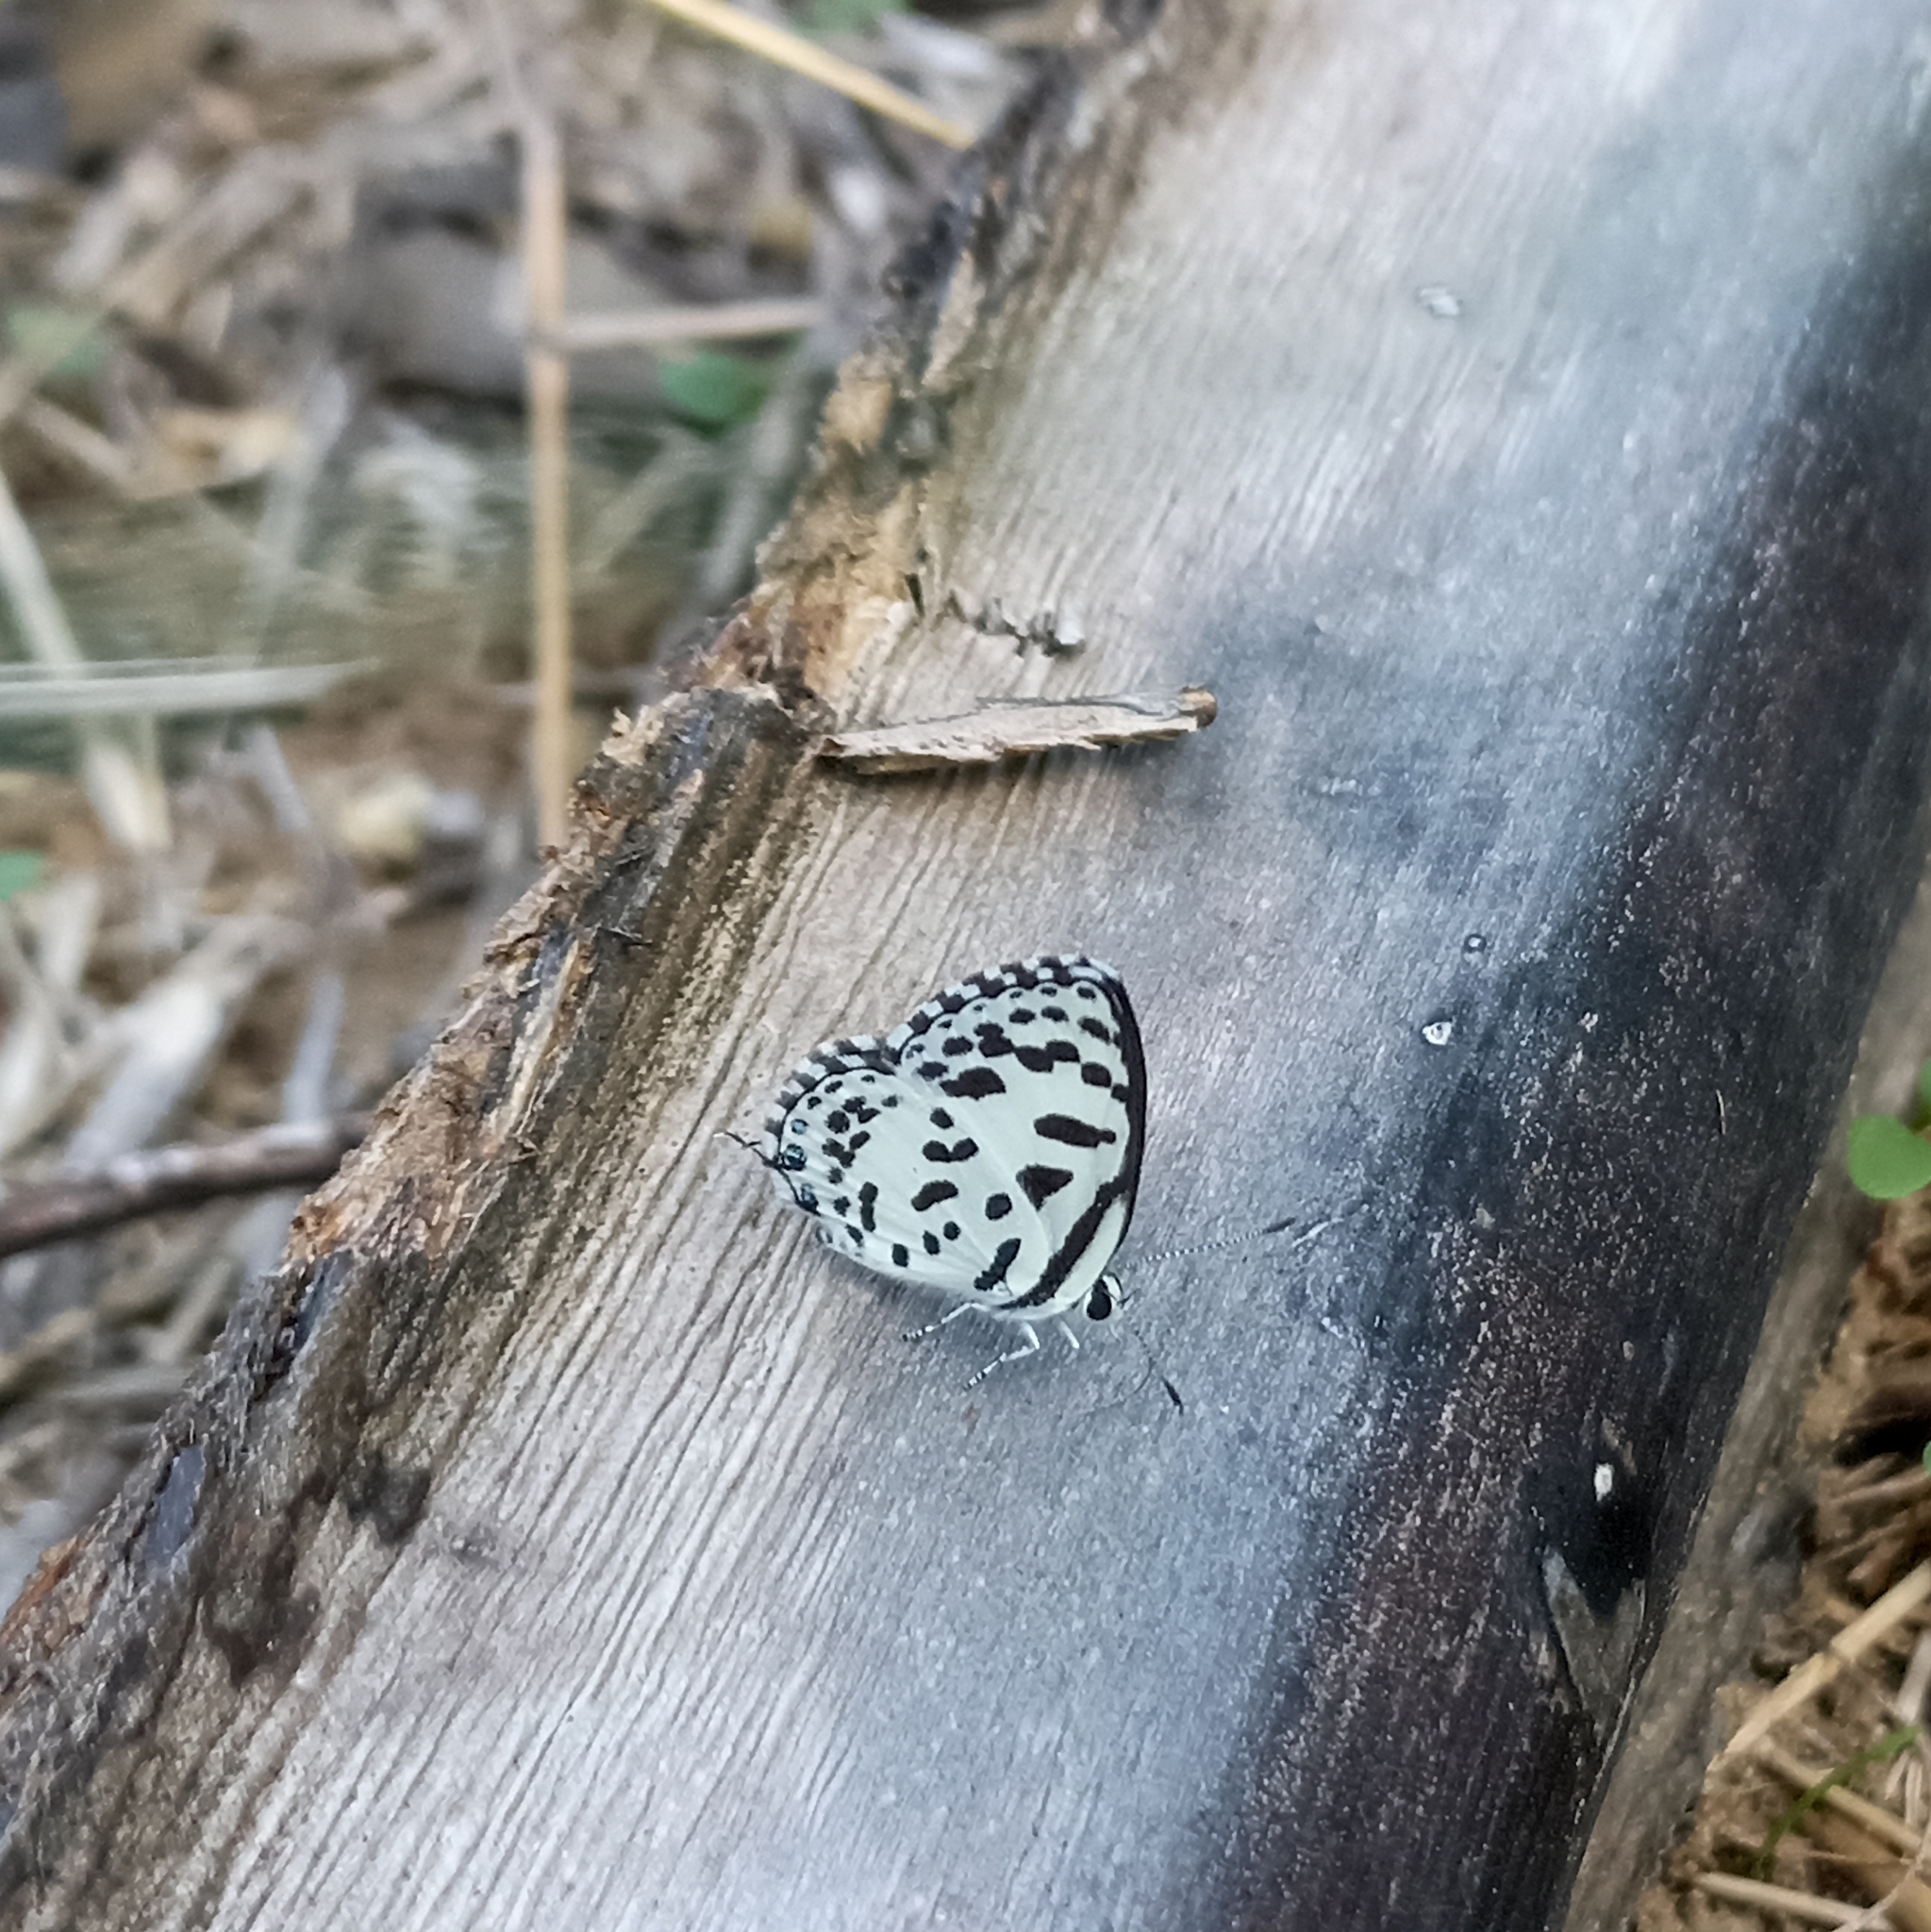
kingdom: Animalia
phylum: Arthropoda
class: Insecta
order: Lepidoptera
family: Lycaenidae
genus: Castalius
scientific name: Castalius rosimon
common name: Common pierrot
